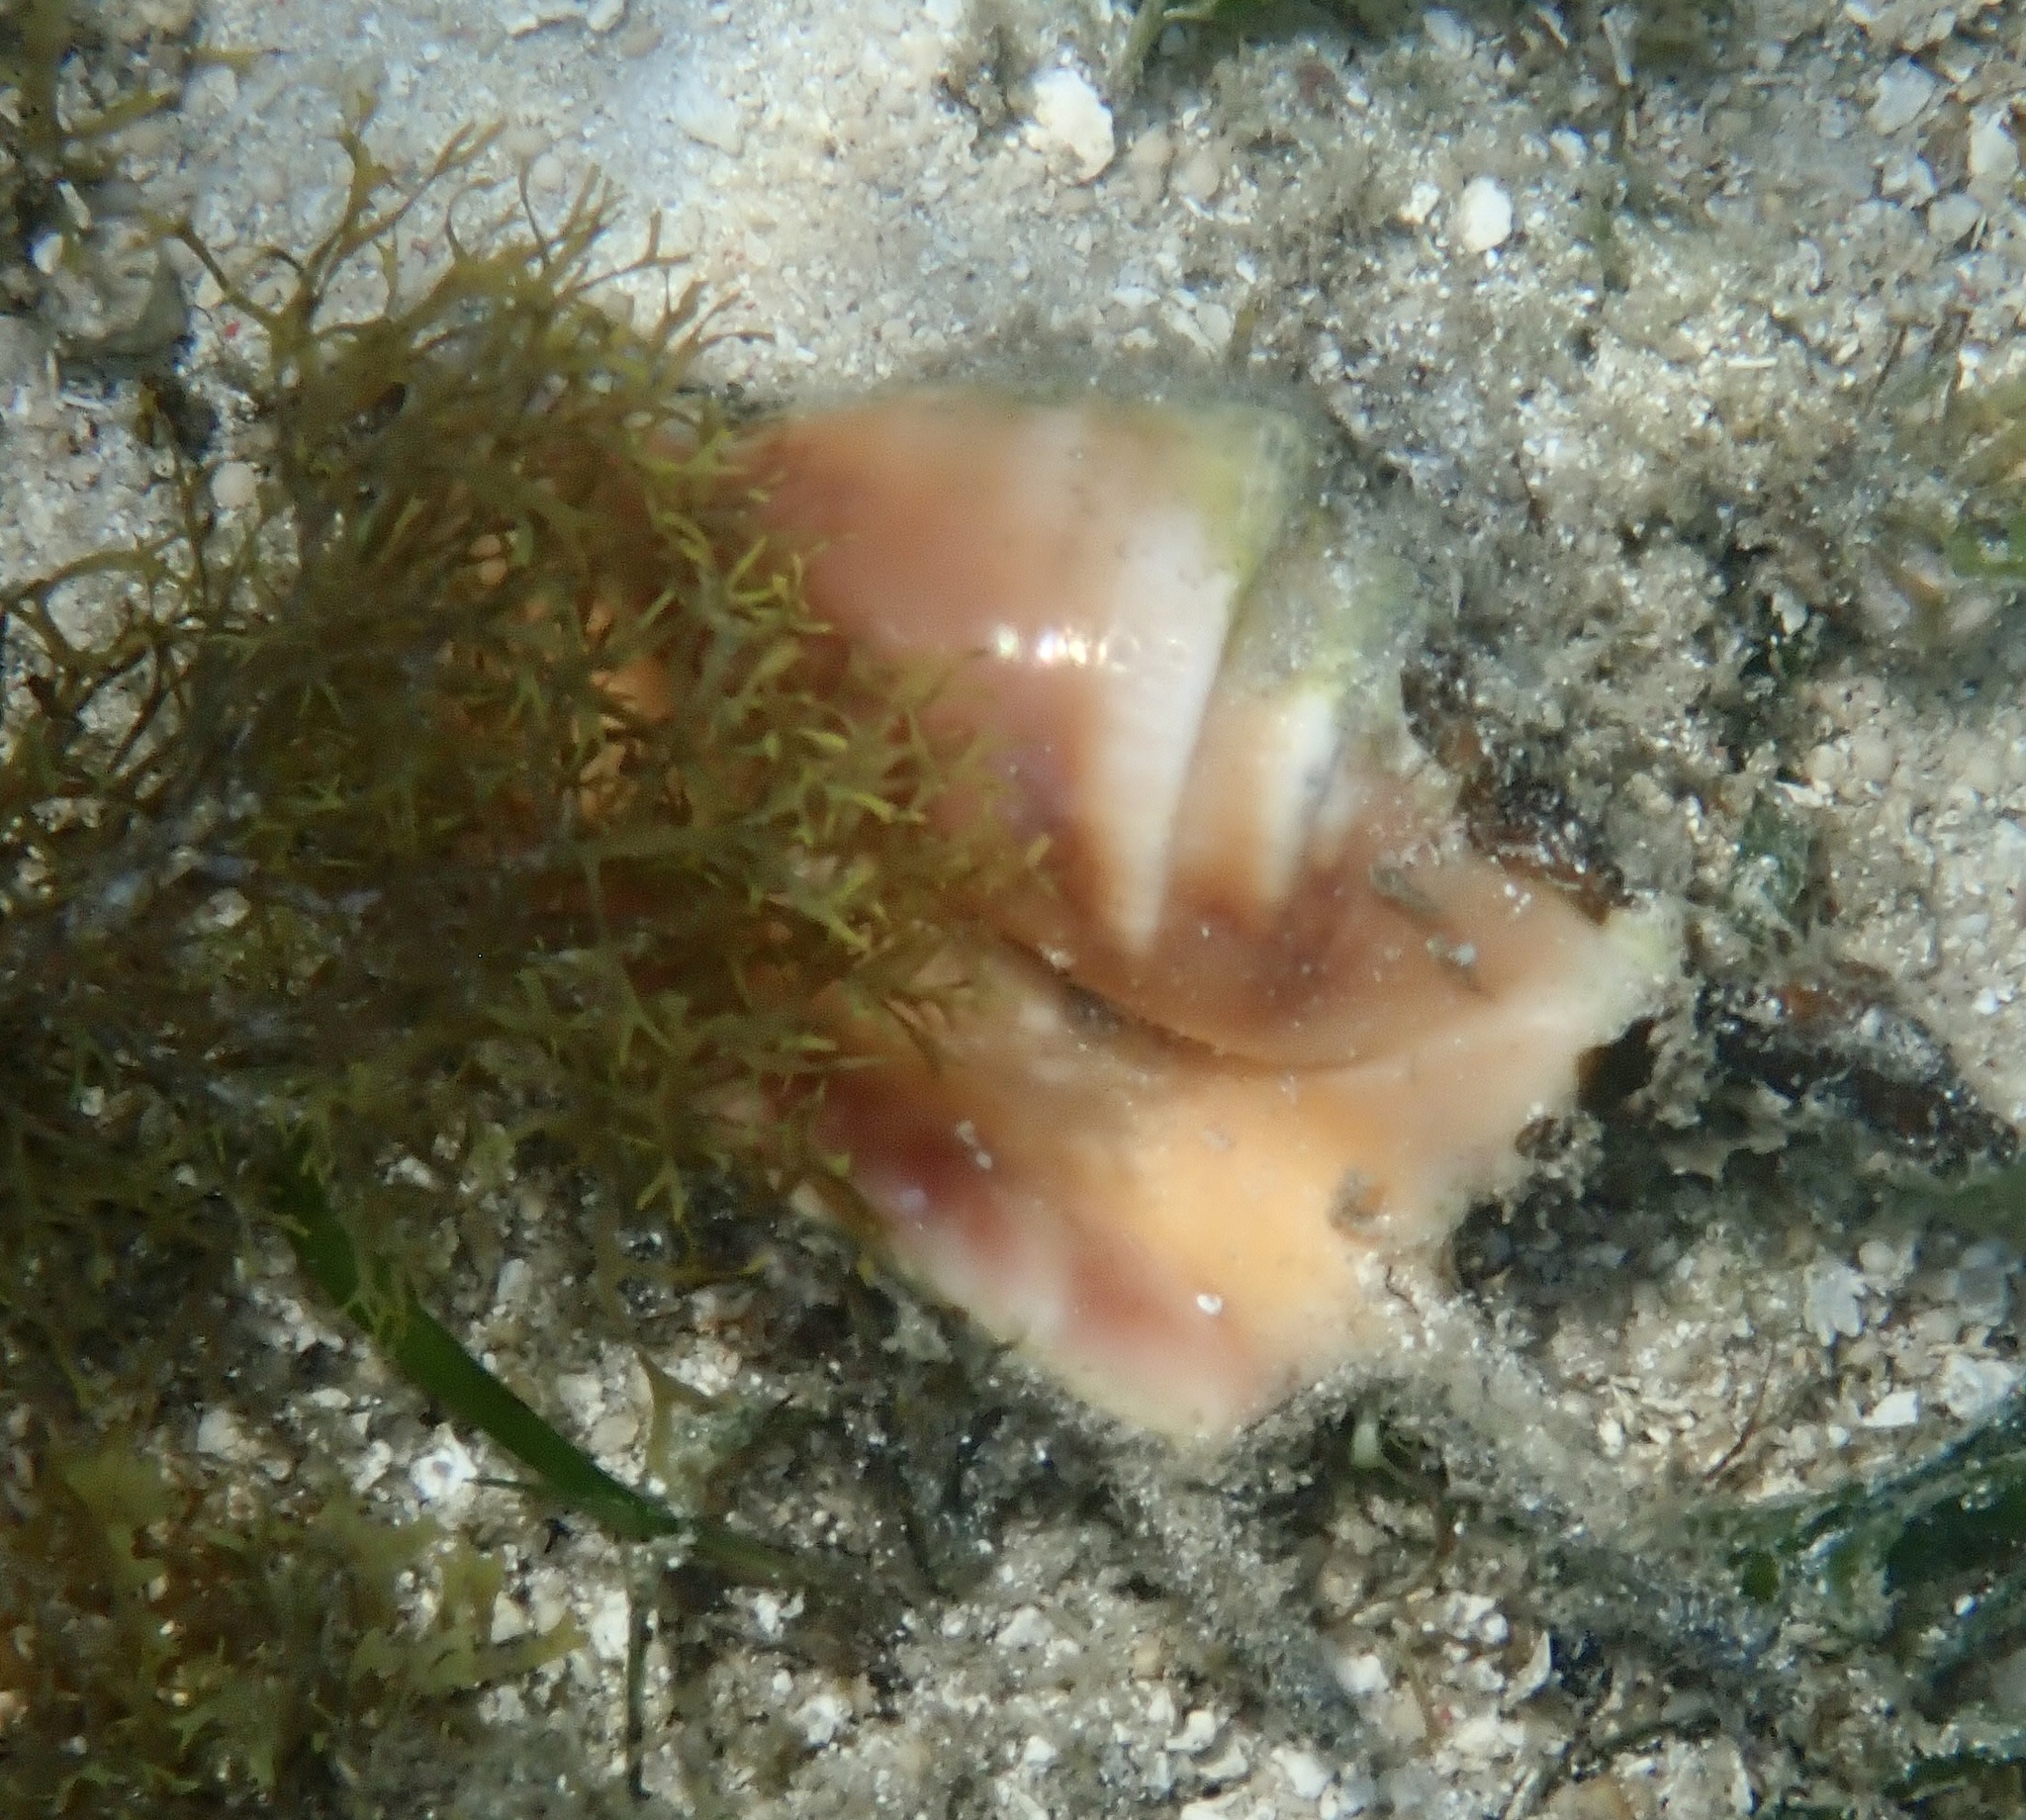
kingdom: Animalia
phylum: Mollusca
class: Gastropoda
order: Littorinimorpha
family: Strombidae
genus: Lambis
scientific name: Lambis lambis
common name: Common spider conch
